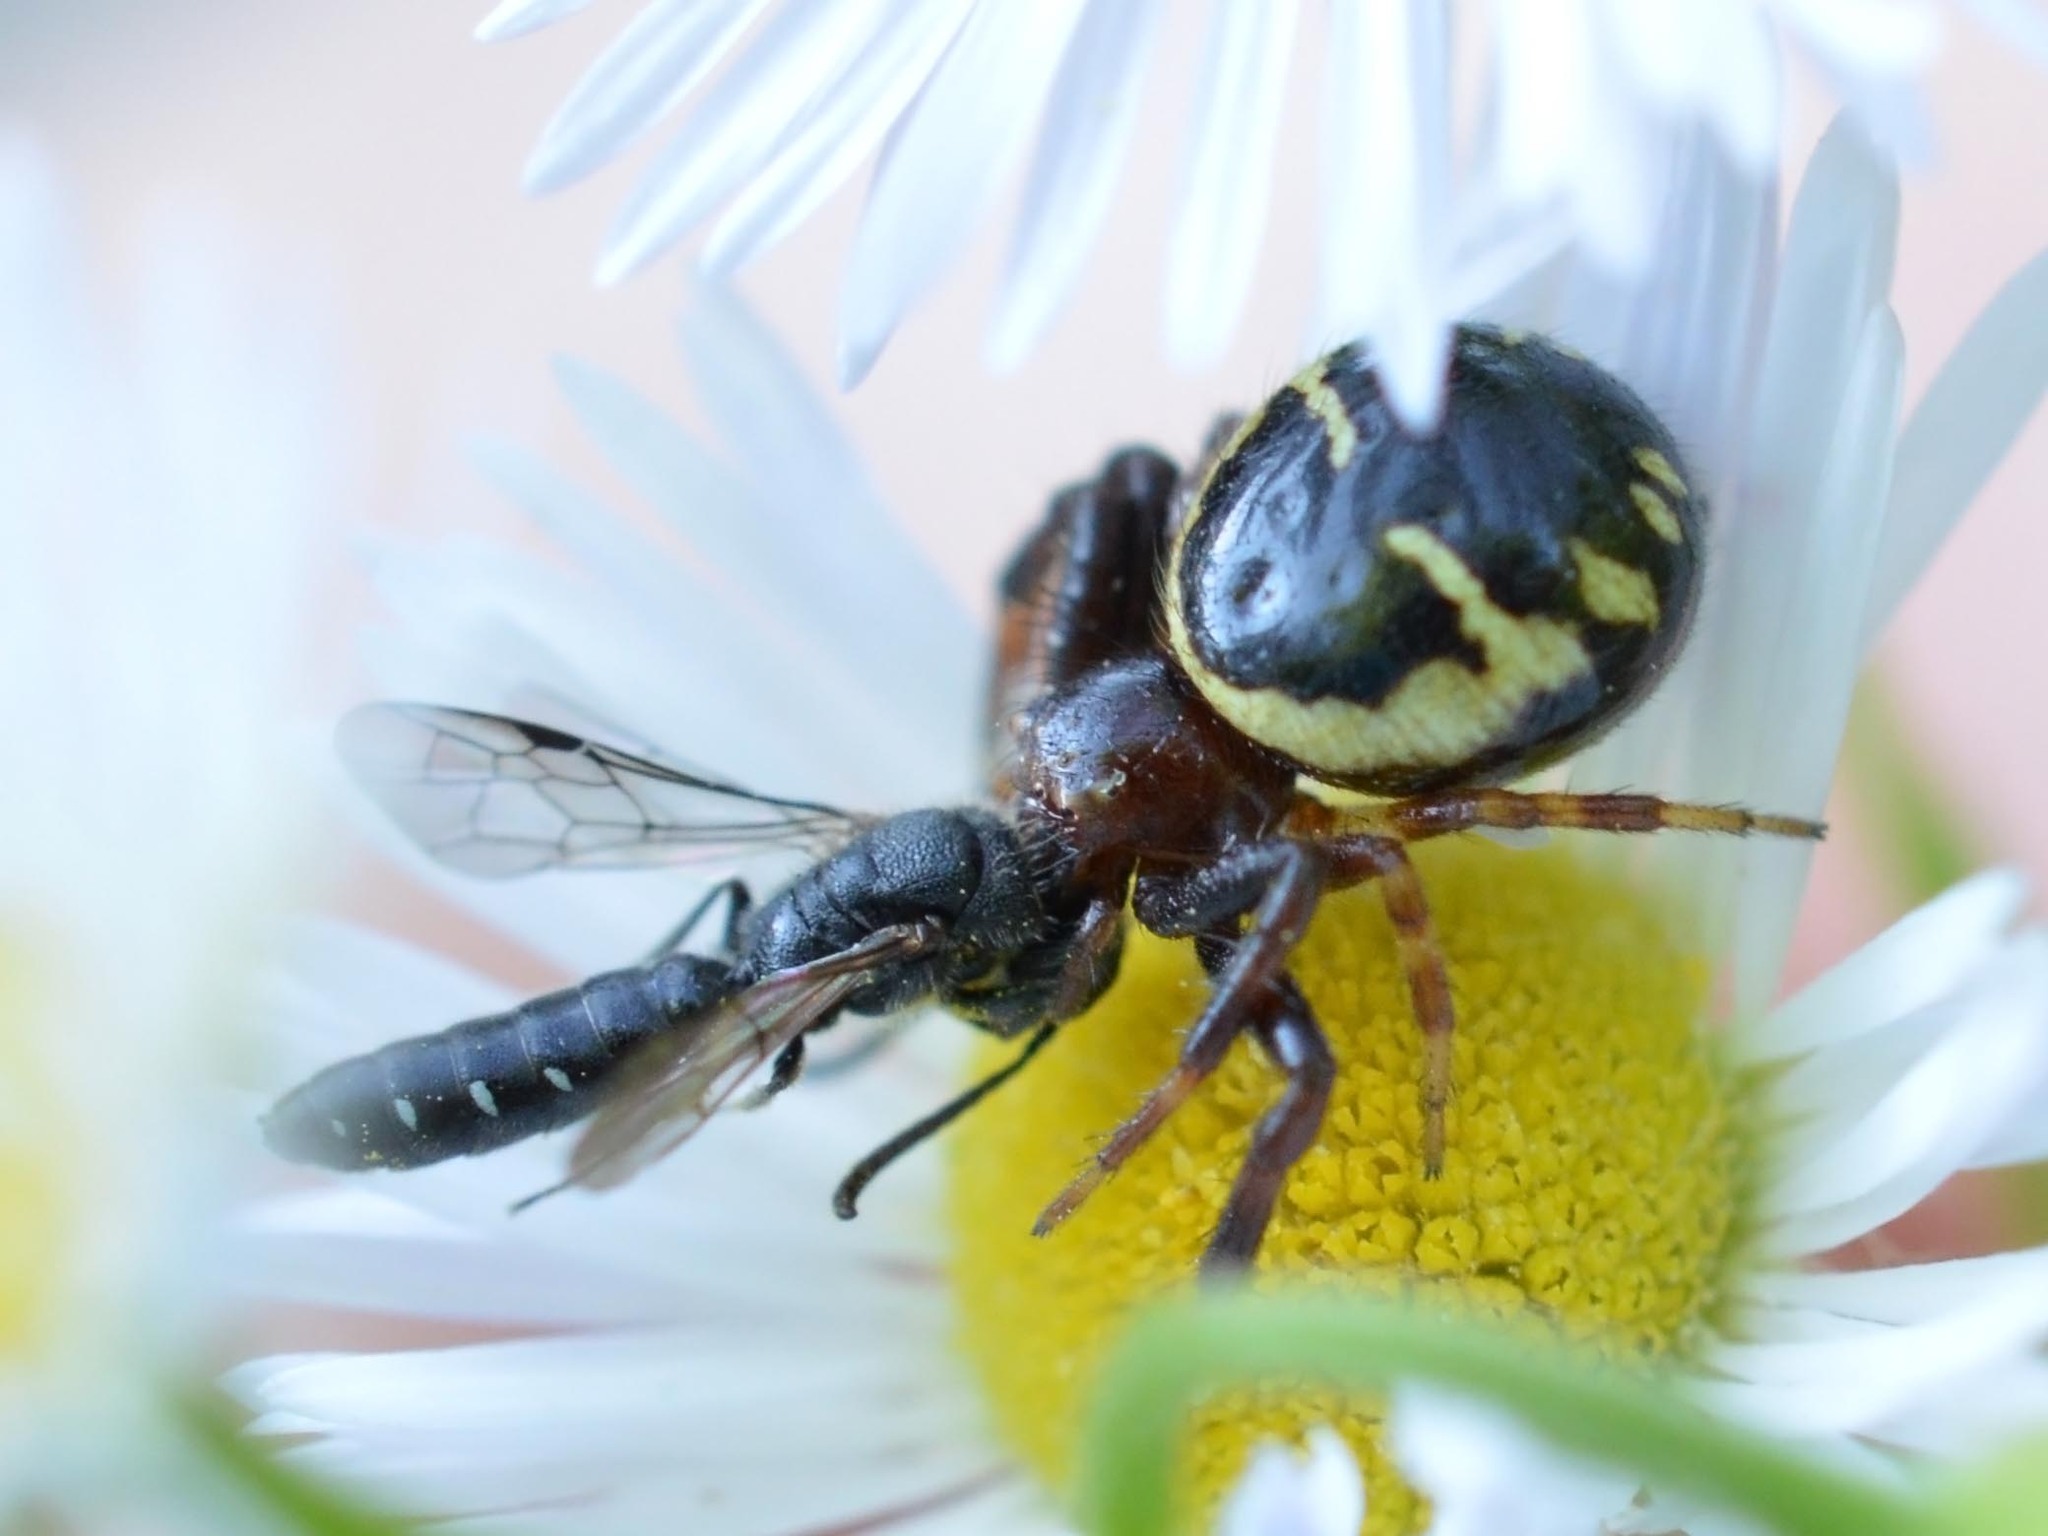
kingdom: Animalia
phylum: Arthropoda
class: Insecta
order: Hymenoptera
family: Sapygidae
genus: Sapygina
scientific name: Sapygina decemguttata
